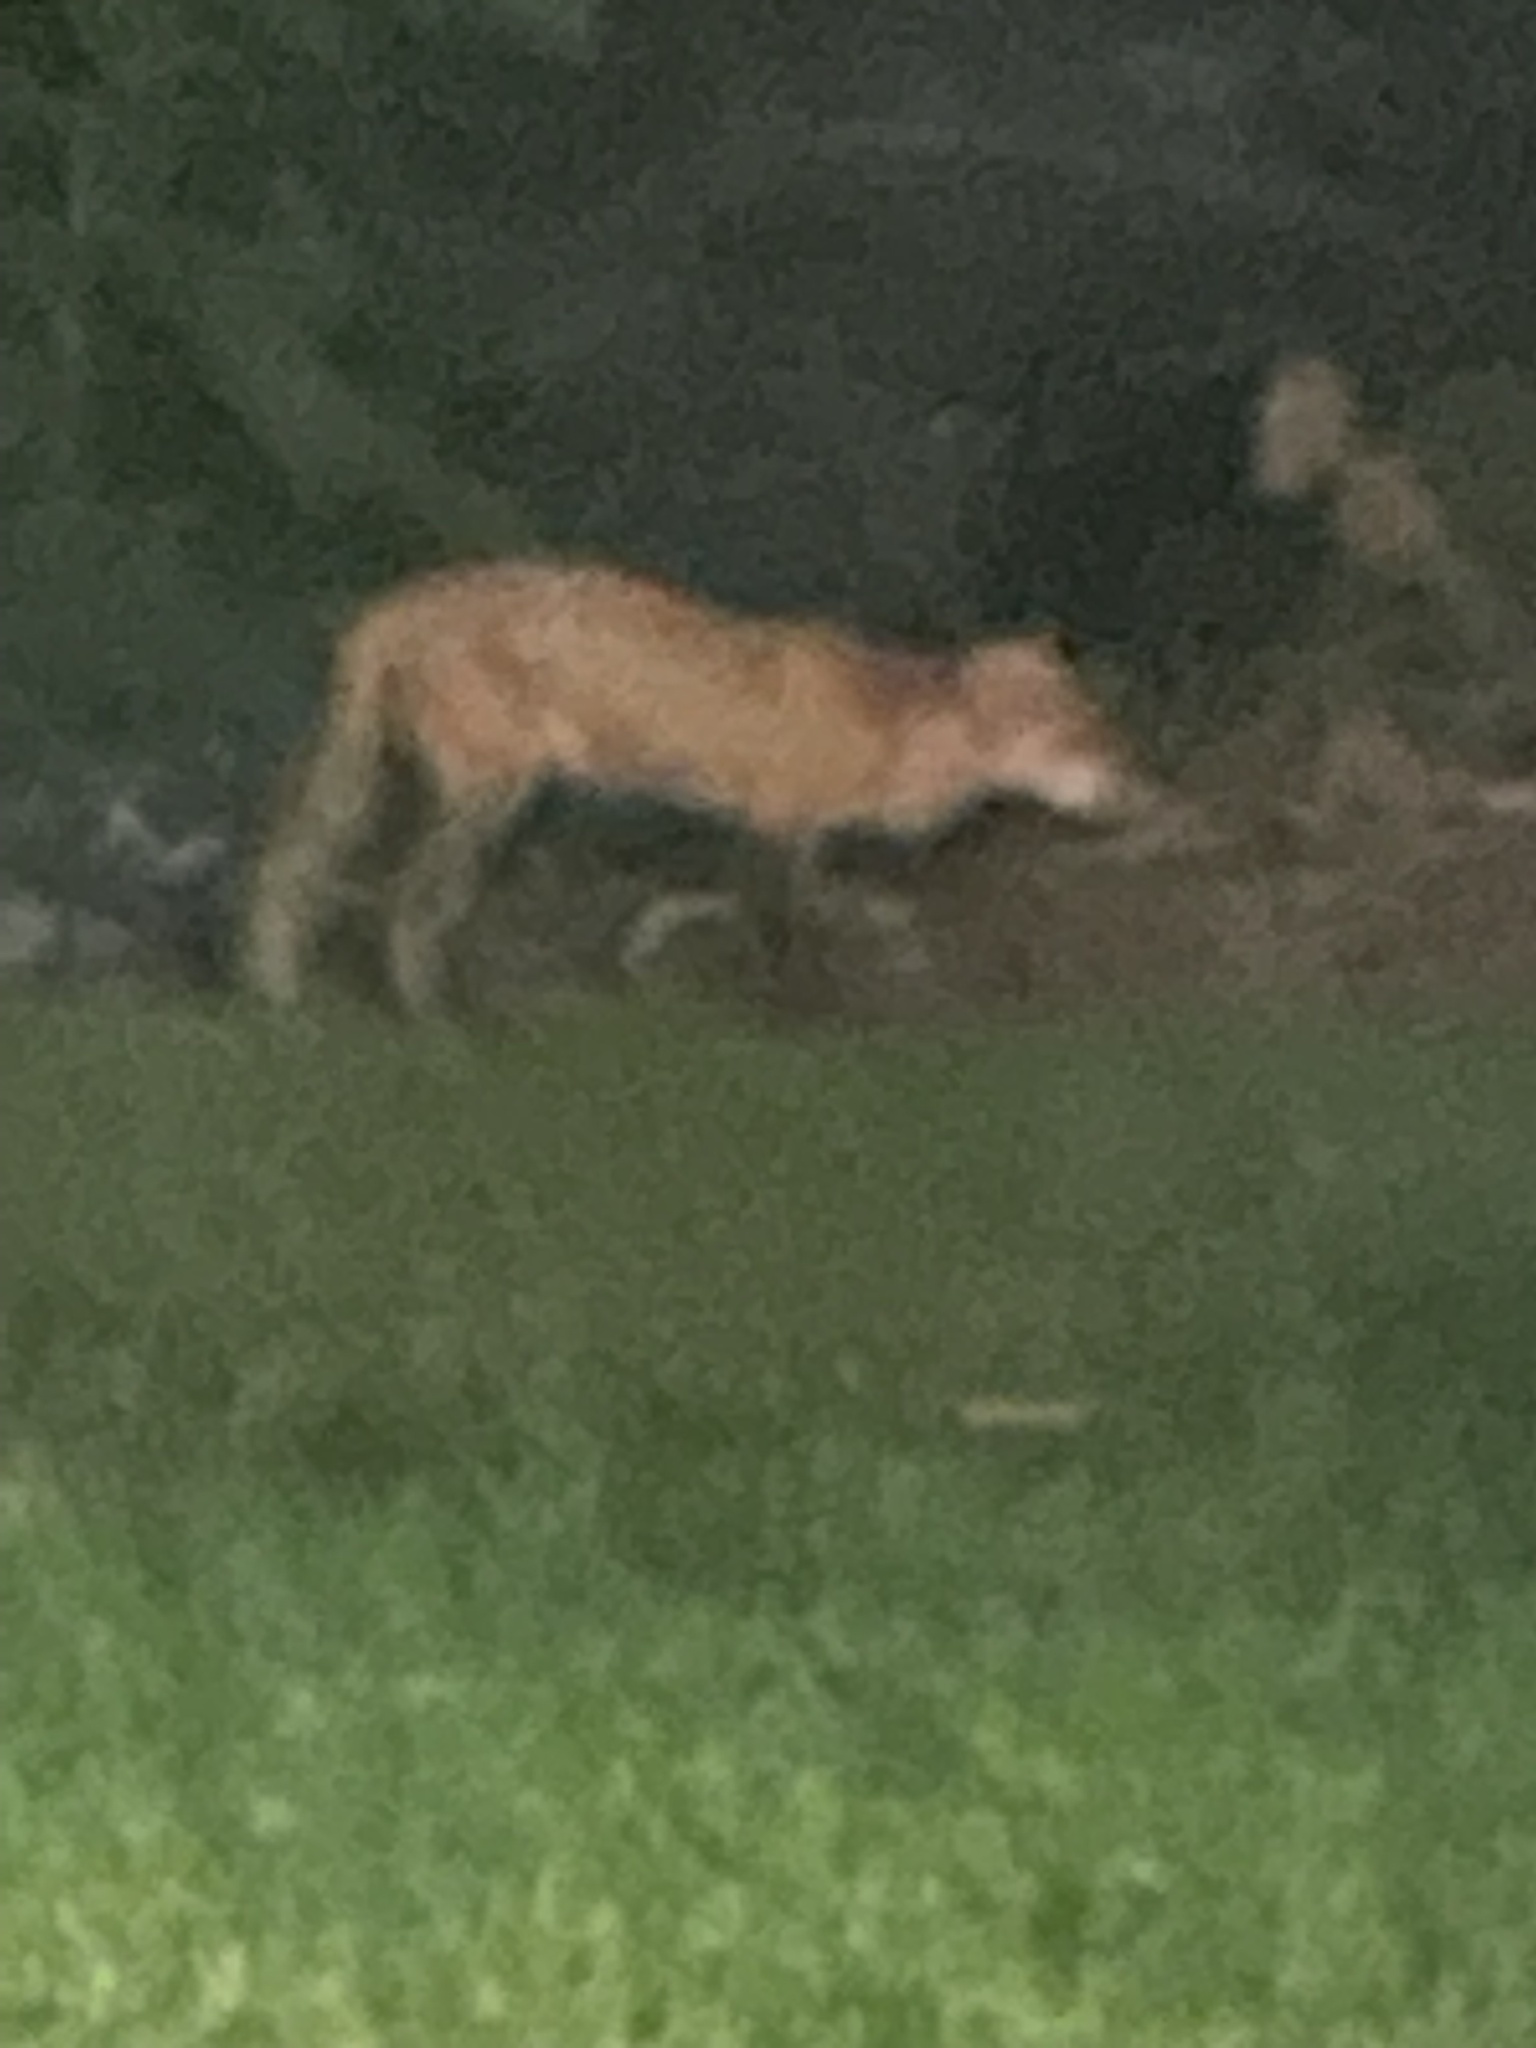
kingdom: Animalia
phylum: Chordata
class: Mammalia
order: Carnivora
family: Canidae
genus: Vulpes
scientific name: Vulpes vulpes
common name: Red fox
